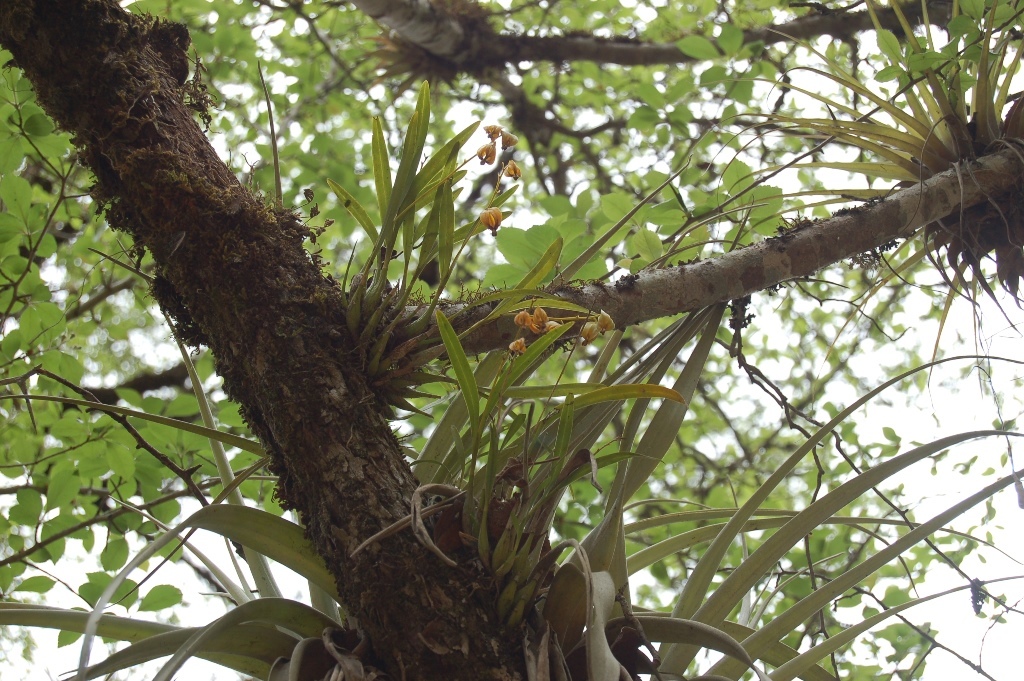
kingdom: Plantae
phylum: Tracheophyta
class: Liliopsida
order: Asparagales
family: Orchidaceae
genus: Prosthechea
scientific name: Prosthechea ochracea
